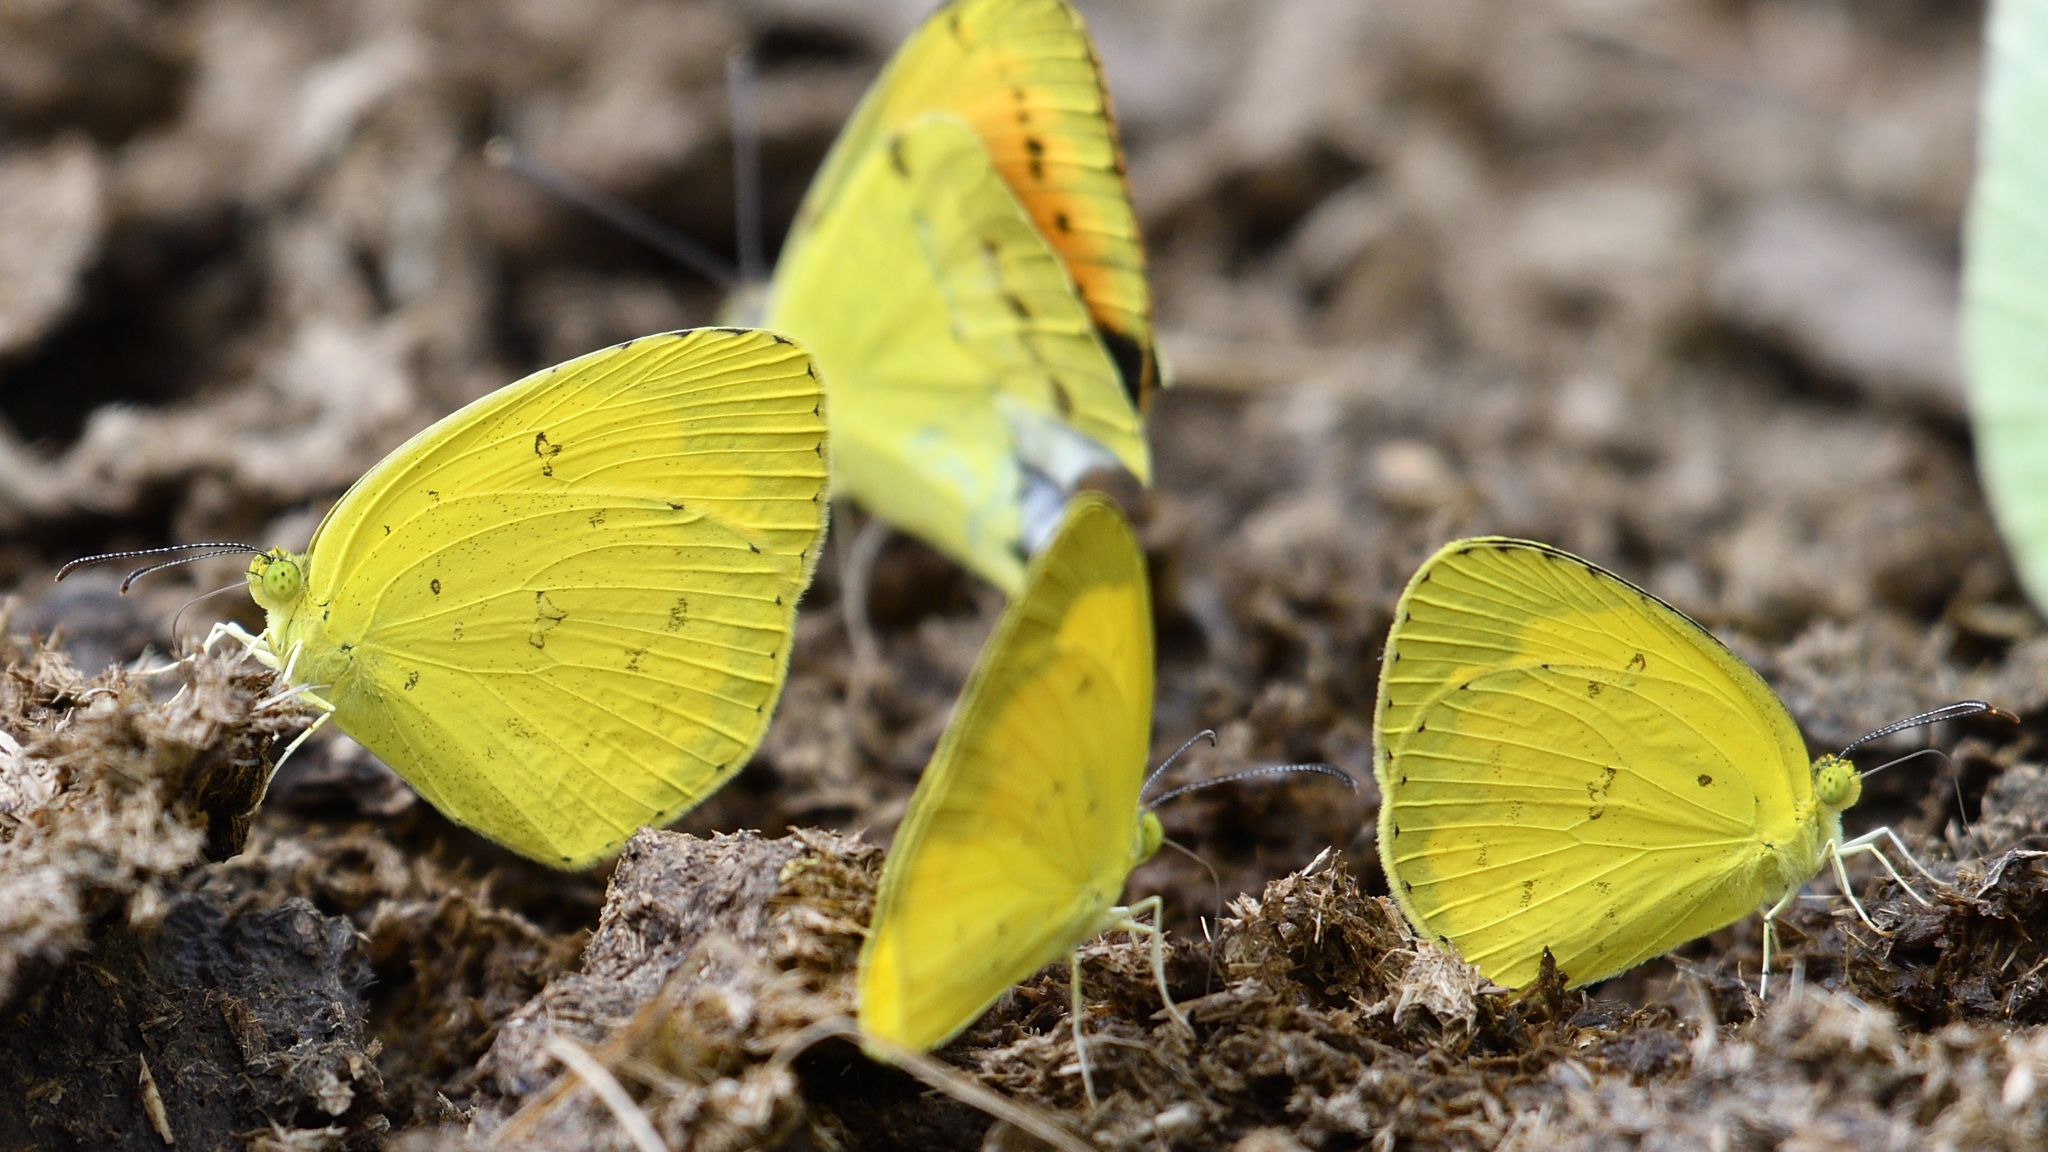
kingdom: Animalia
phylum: Arthropoda
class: Insecta
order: Lepidoptera
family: Pieridae
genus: Eurema
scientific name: Eurema hecabe
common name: Pale grass yellow
